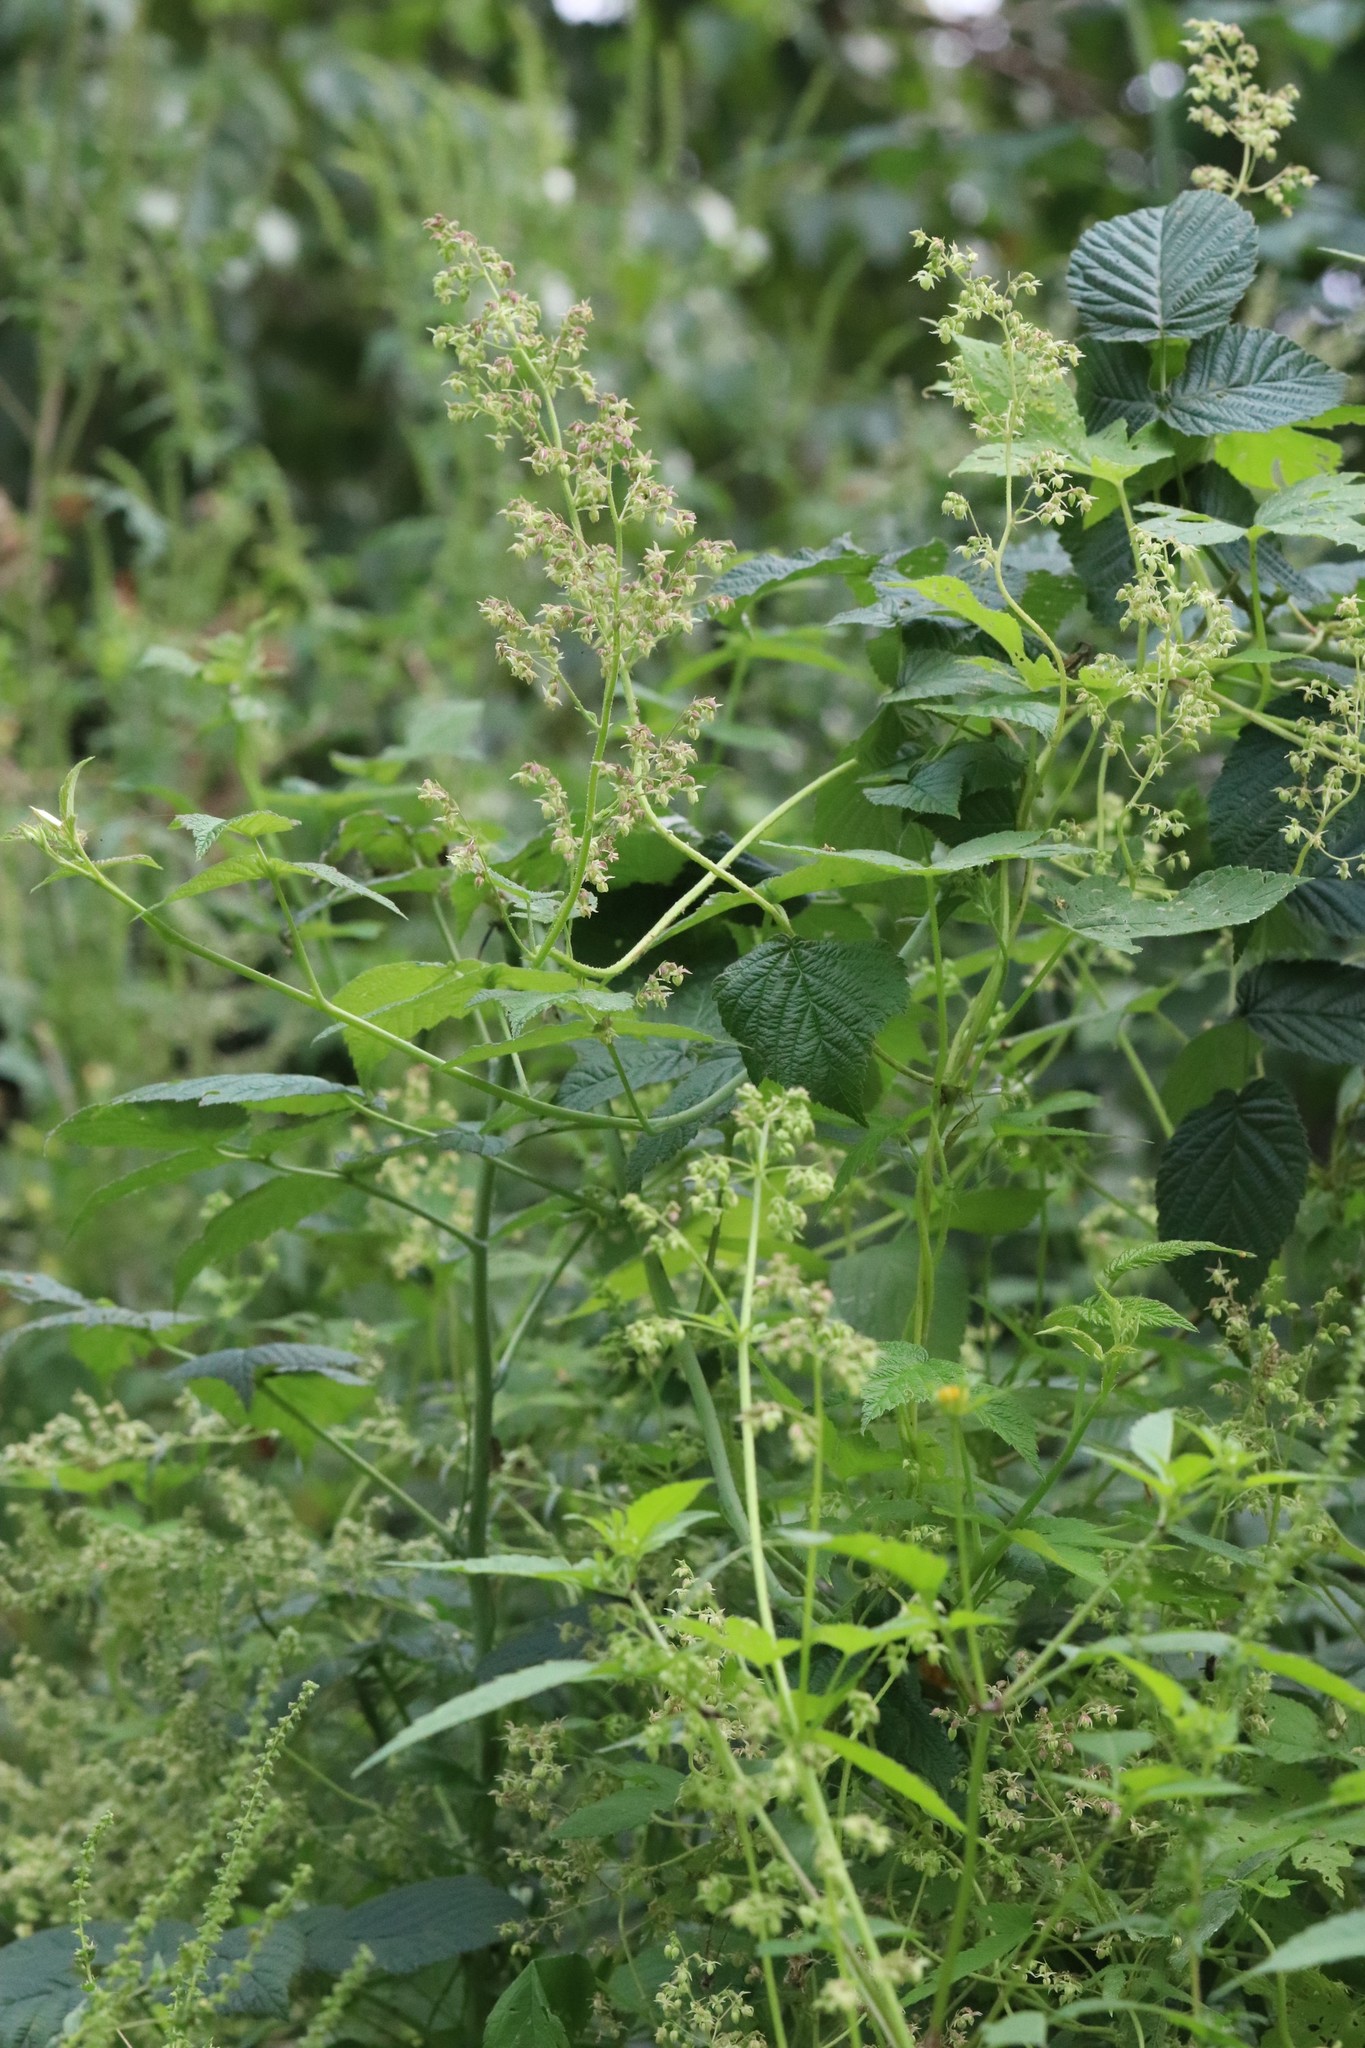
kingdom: Plantae
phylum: Tracheophyta
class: Magnoliopsida
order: Rosales
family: Cannabaceae
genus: Humulus
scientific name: Humulus scandens
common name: Japanese hop
